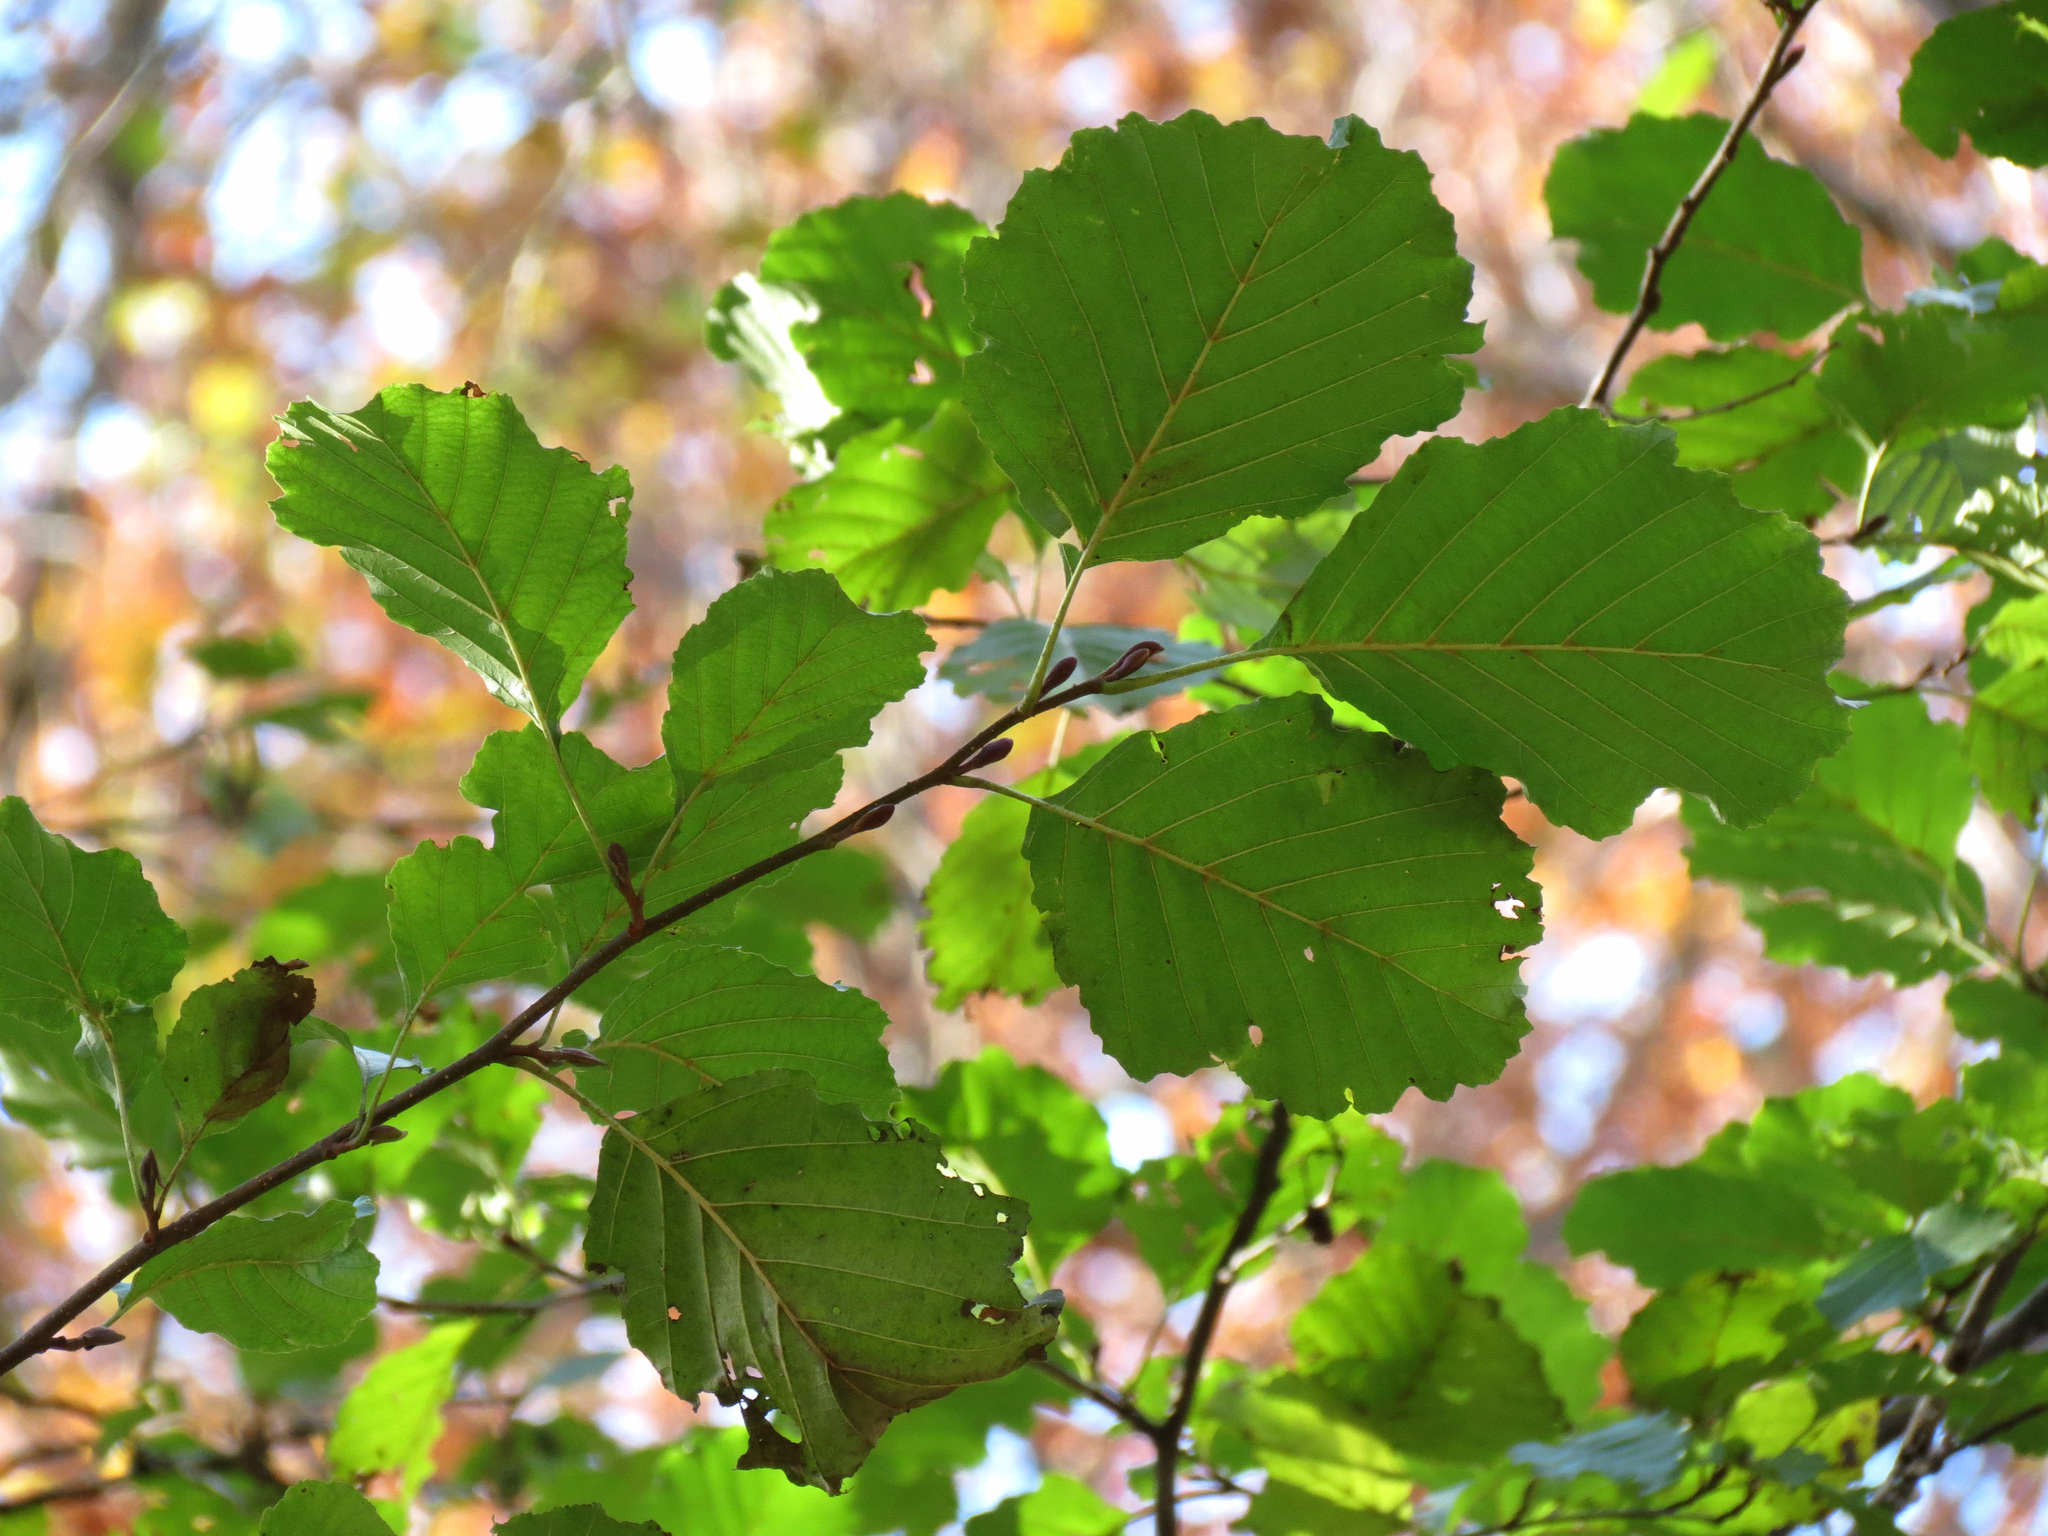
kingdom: Plantae
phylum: Tracheophyta
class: Magnoliopsida
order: Fagales
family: Betulaceae
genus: Alnus
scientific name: Alnus glutinosa
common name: Black alder
